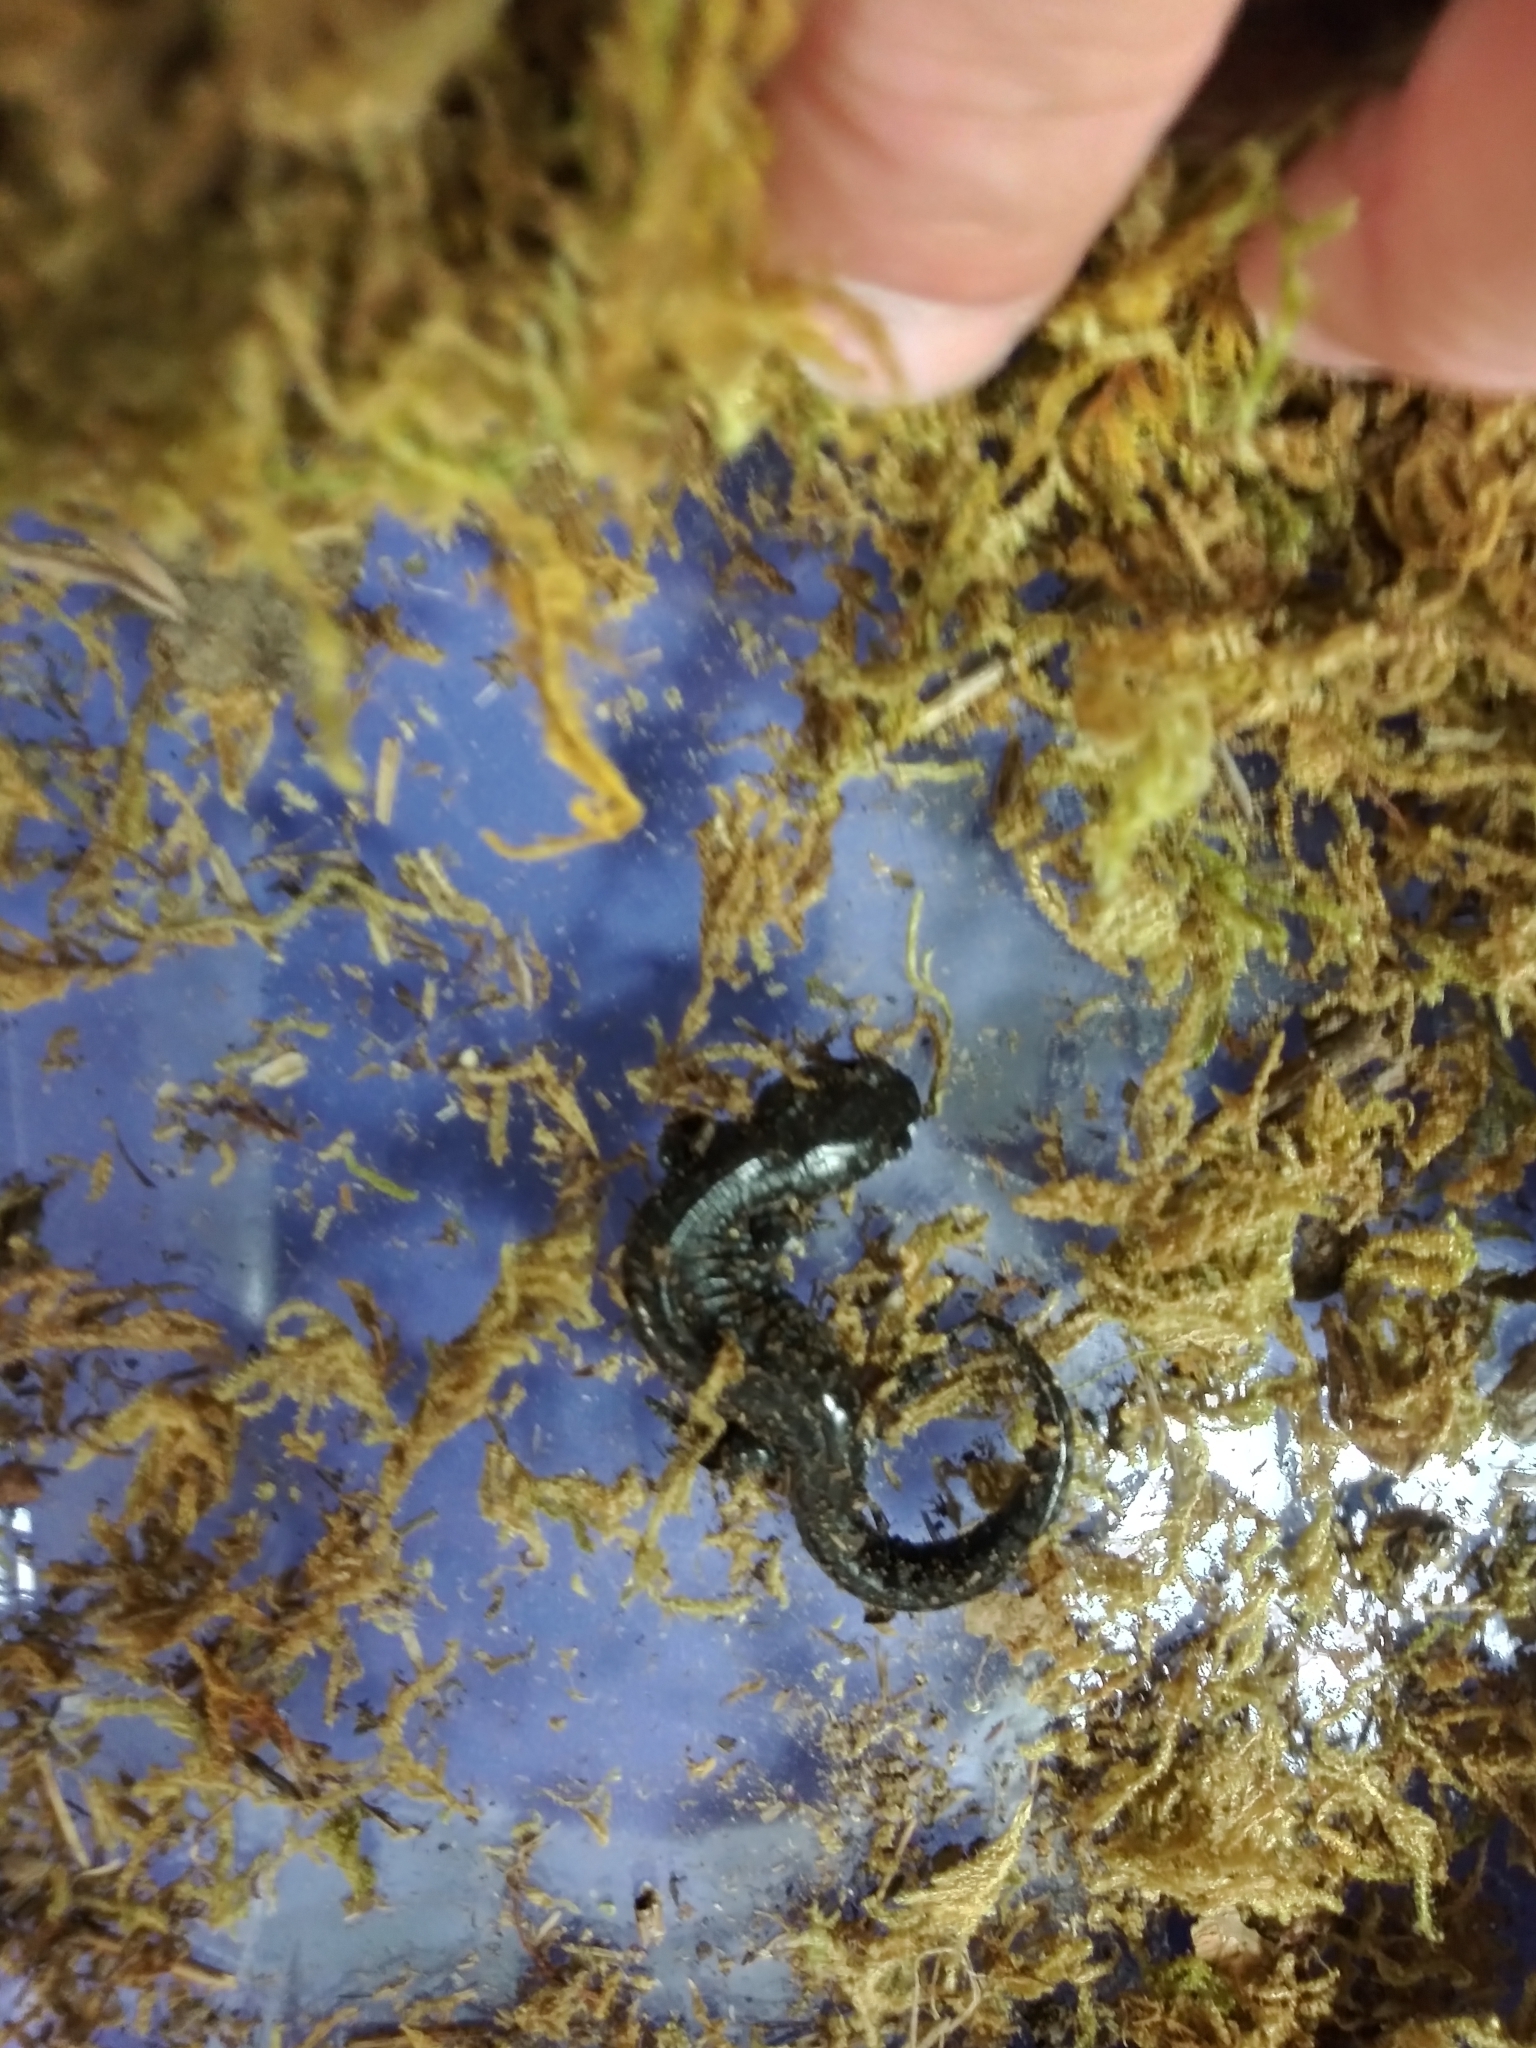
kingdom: Animalia
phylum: Chordata
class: Amphibia
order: Caudata
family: Ambystomatidae
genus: Ambystoma
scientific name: Ambystoma unisexual
